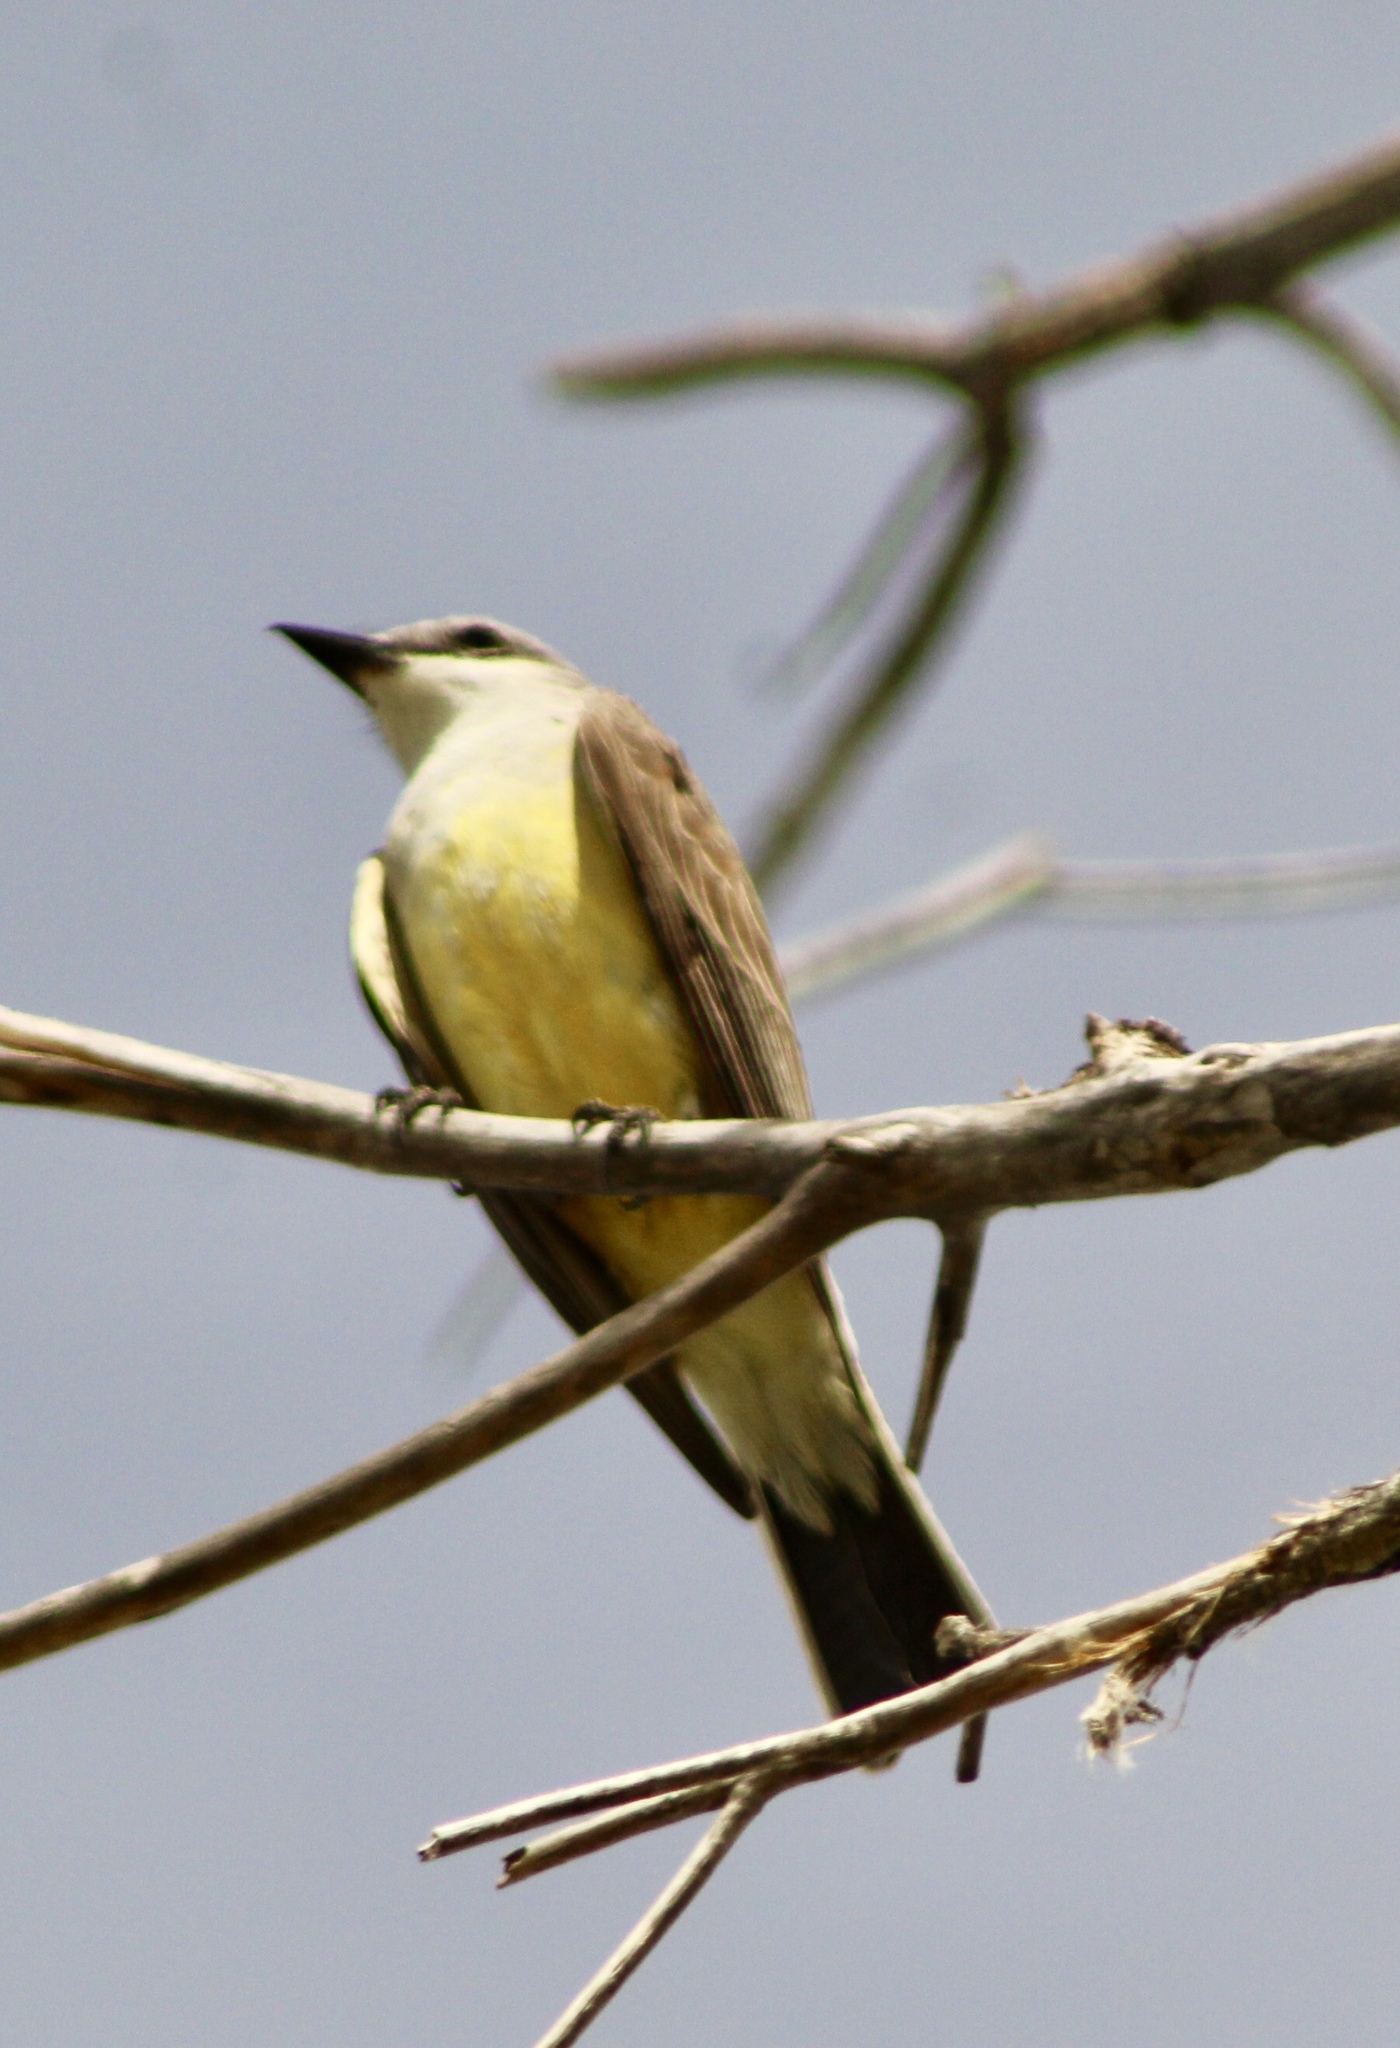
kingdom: Animalia
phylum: Chordata
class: Aves
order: Passeriformes
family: Tyrannidae
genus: Tyrannus
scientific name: Tyrannus verticalis
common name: Western kingbird
